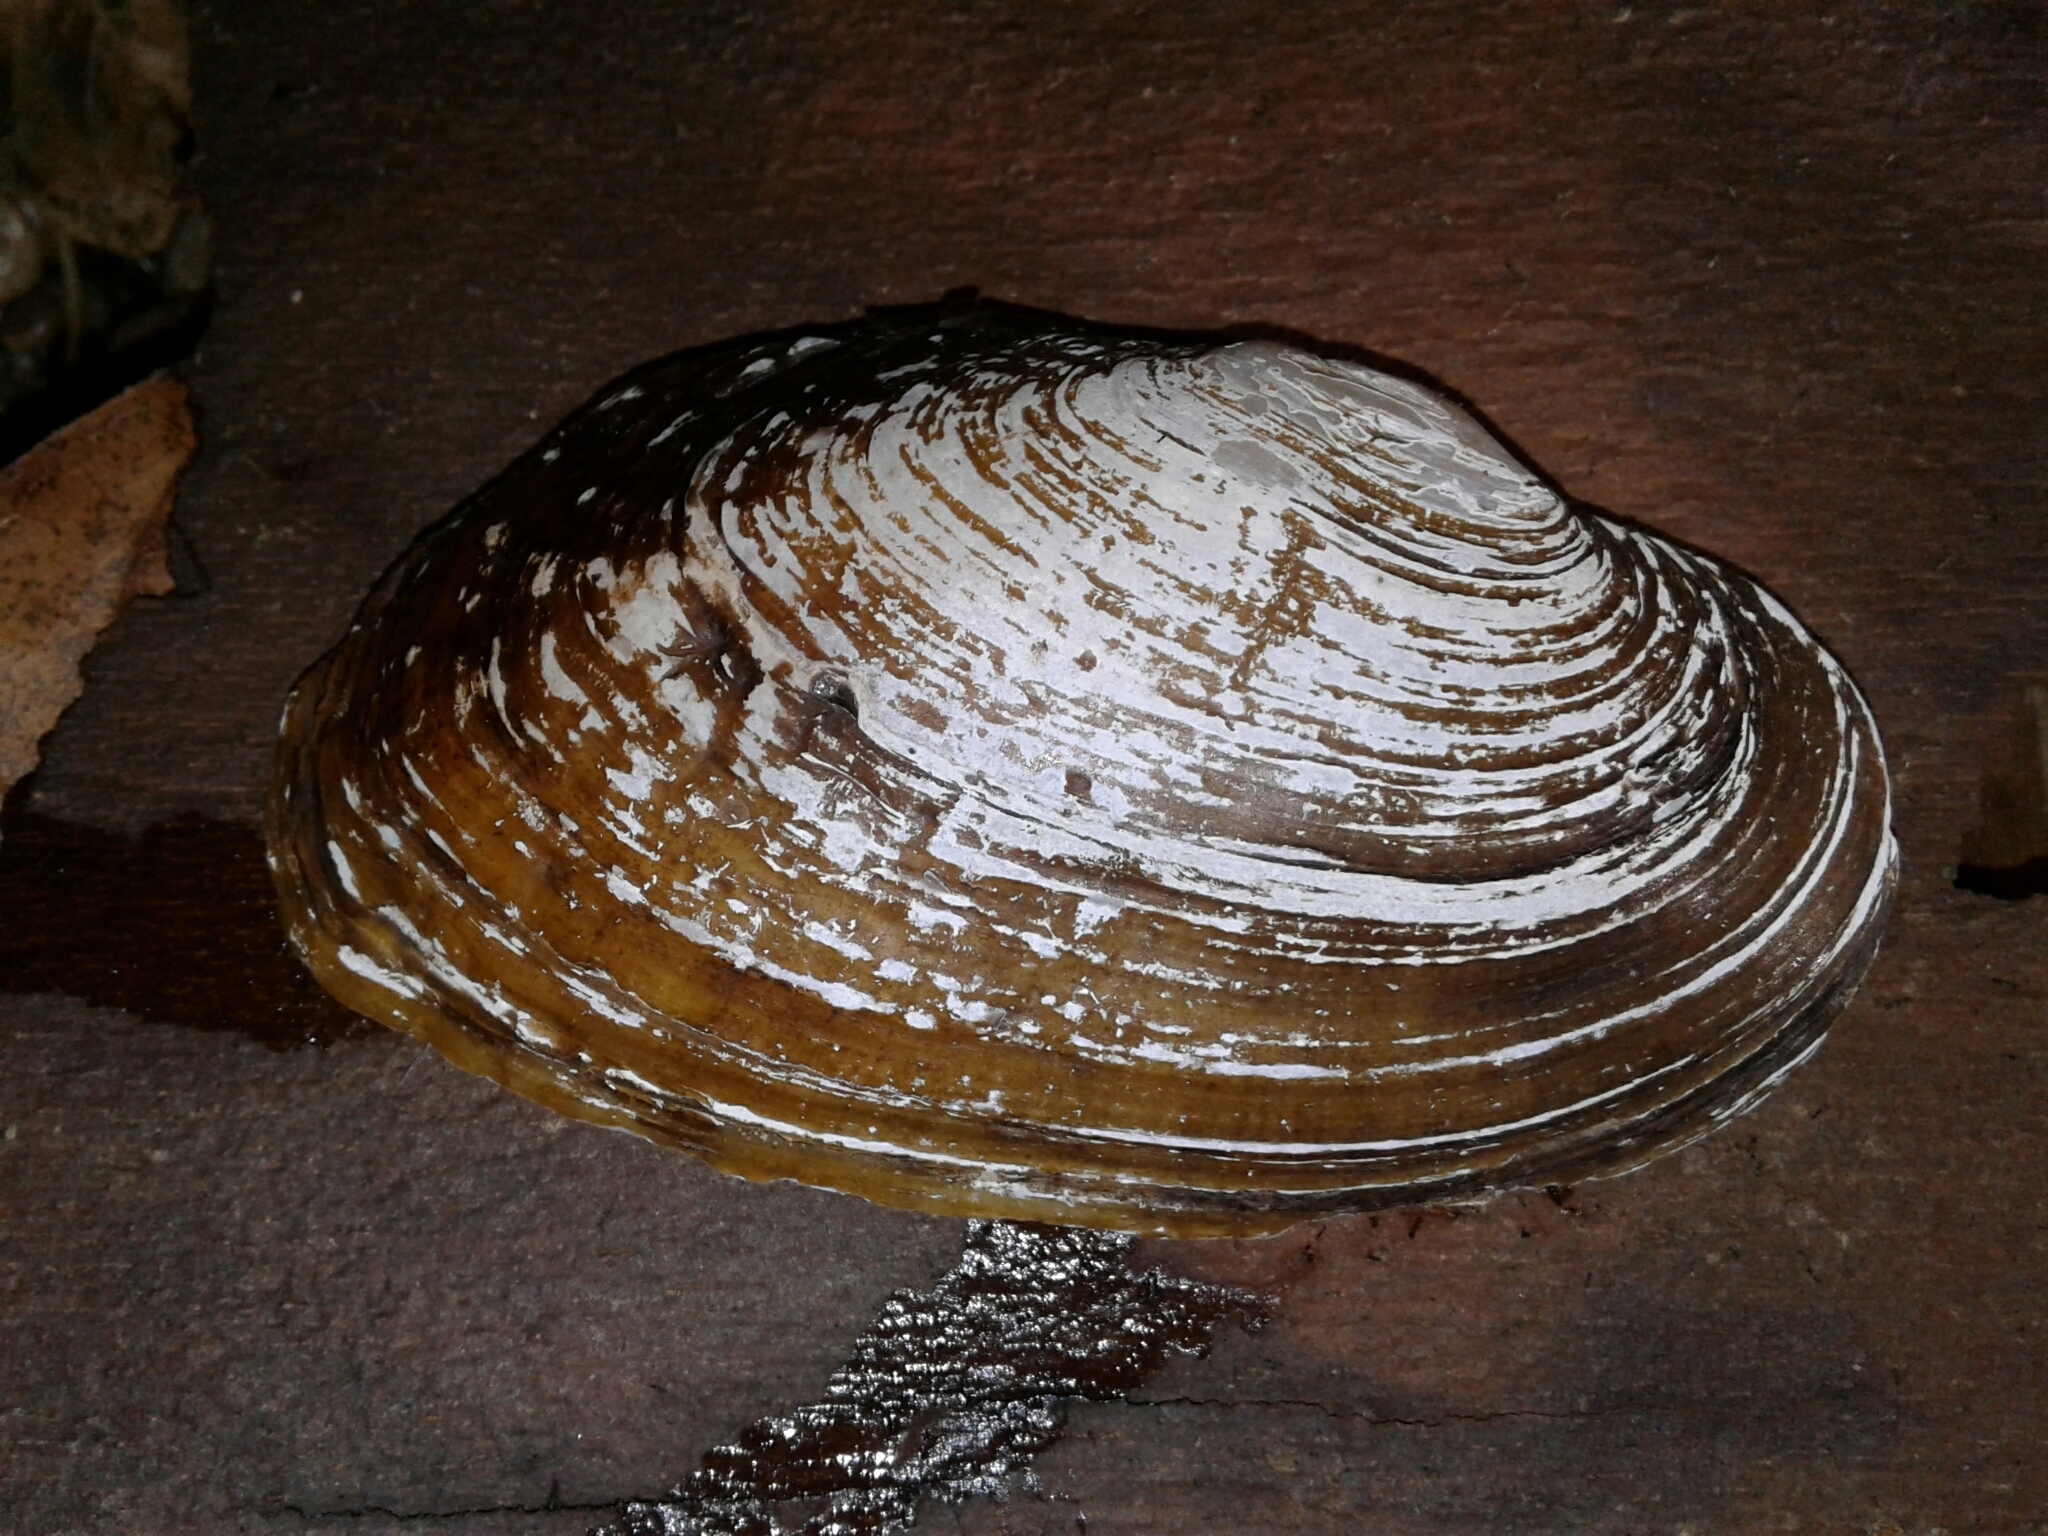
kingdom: Animalia
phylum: Mollusca
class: Bivalvia
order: Unionida
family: Unionidae
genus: Lasmigona
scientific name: Lasmigona costata
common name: Flutedshell
